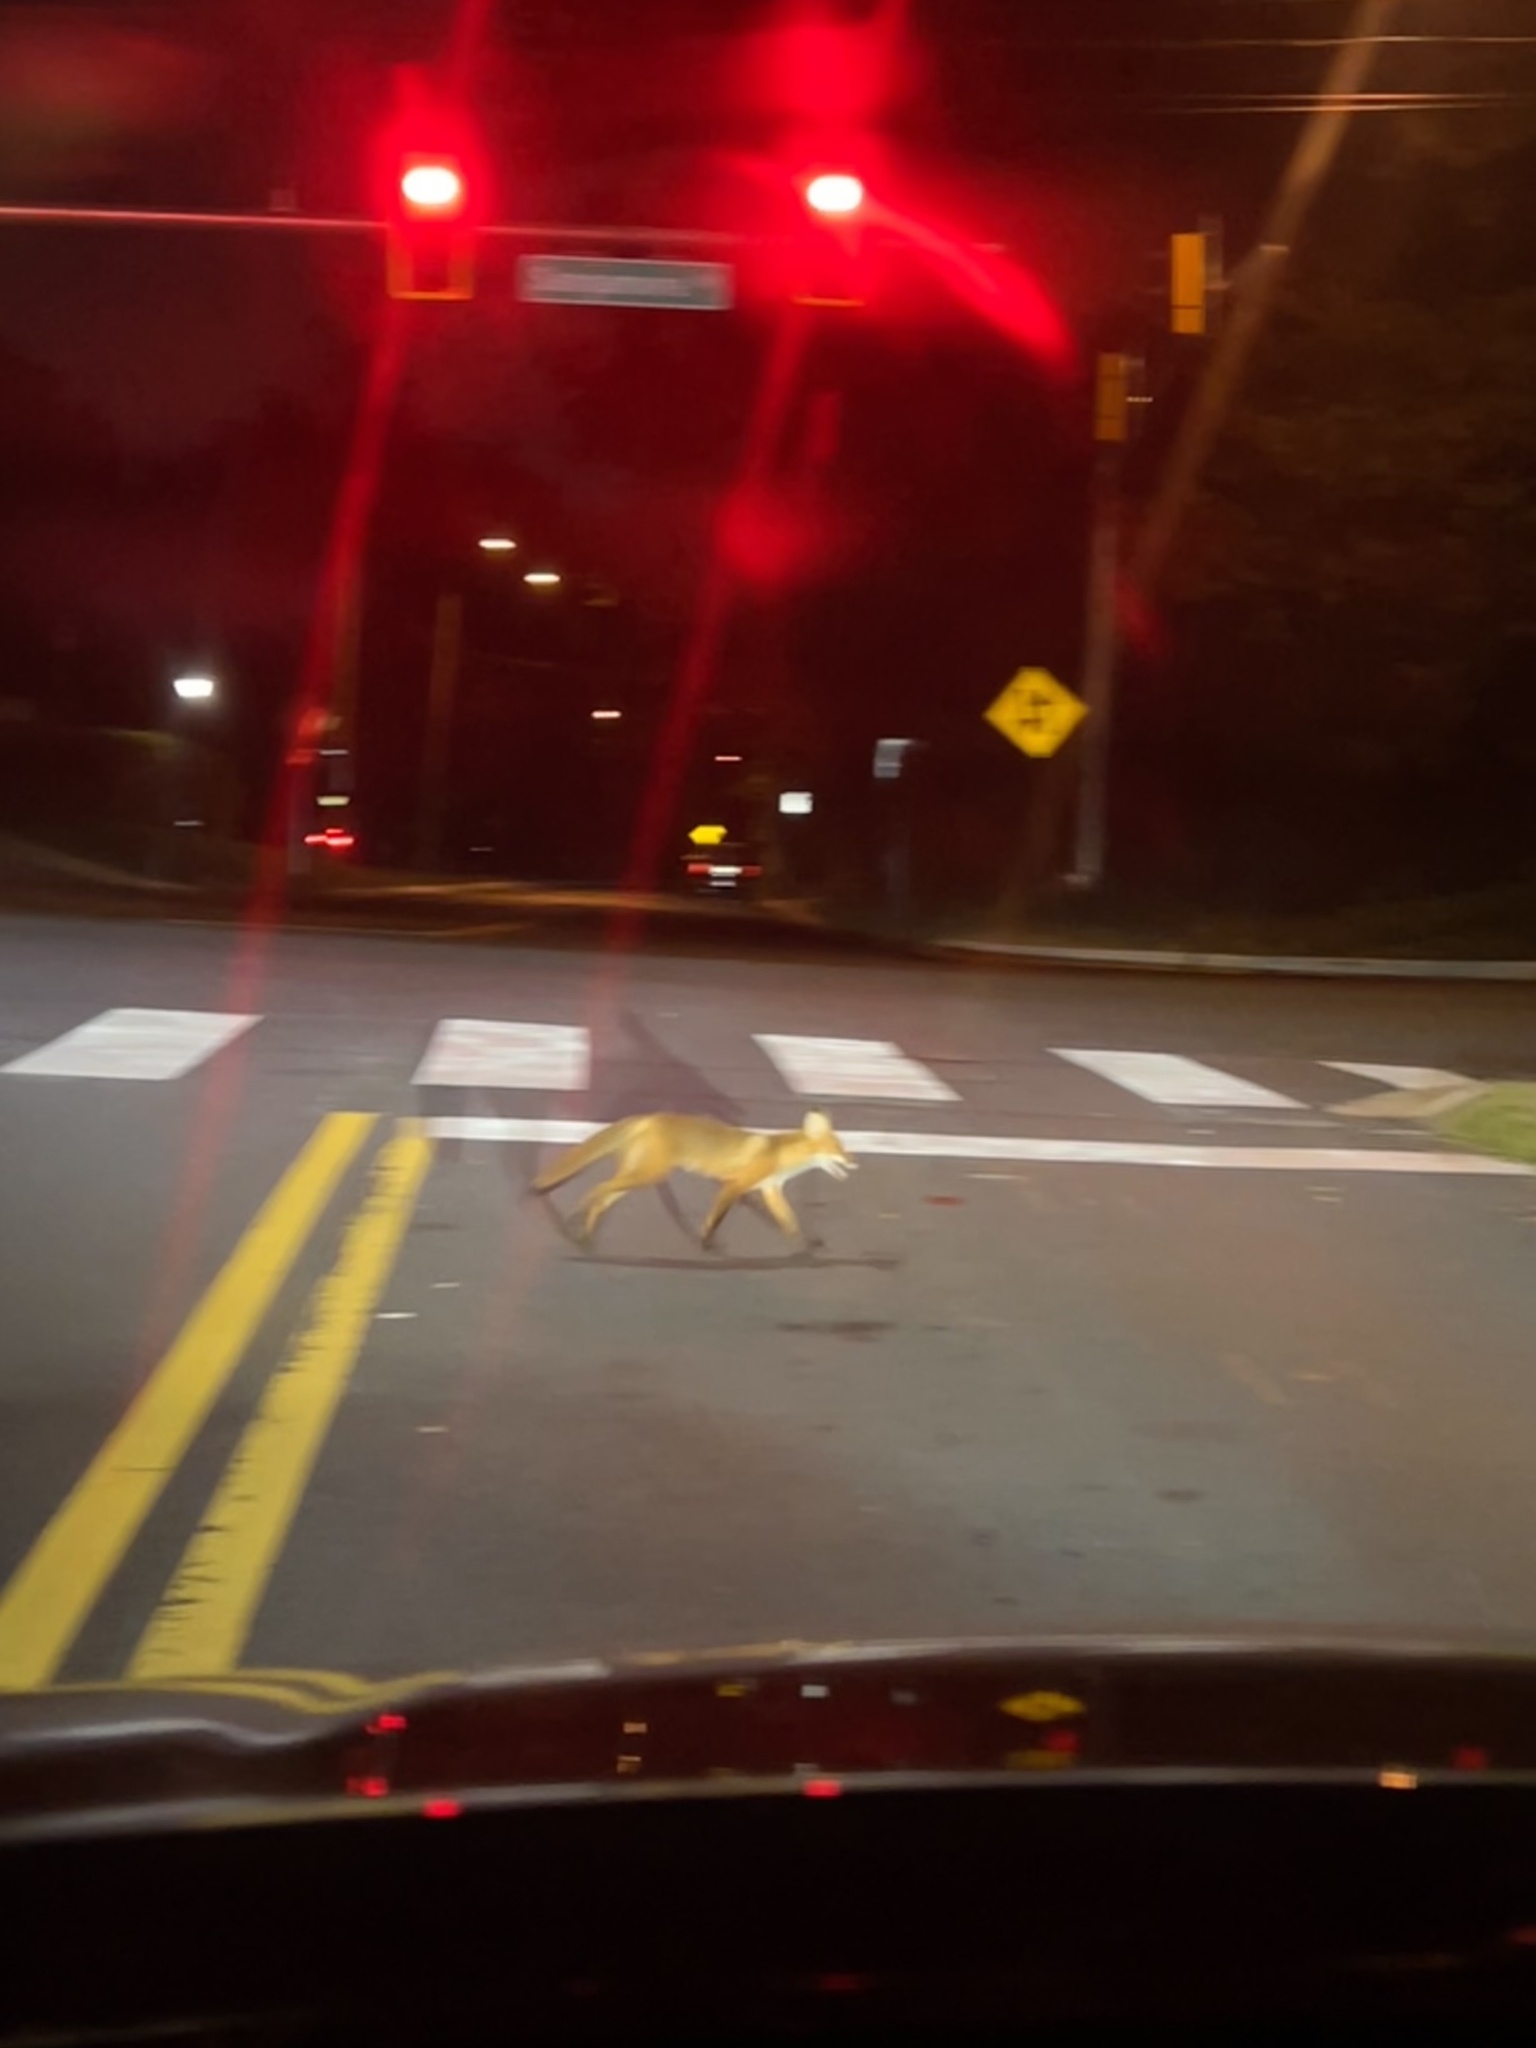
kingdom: Animalia
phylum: Chordata
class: Mammalia
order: Carnivora
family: Canidae
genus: Vulpes
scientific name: Vulpes vulpes
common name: Red fox
